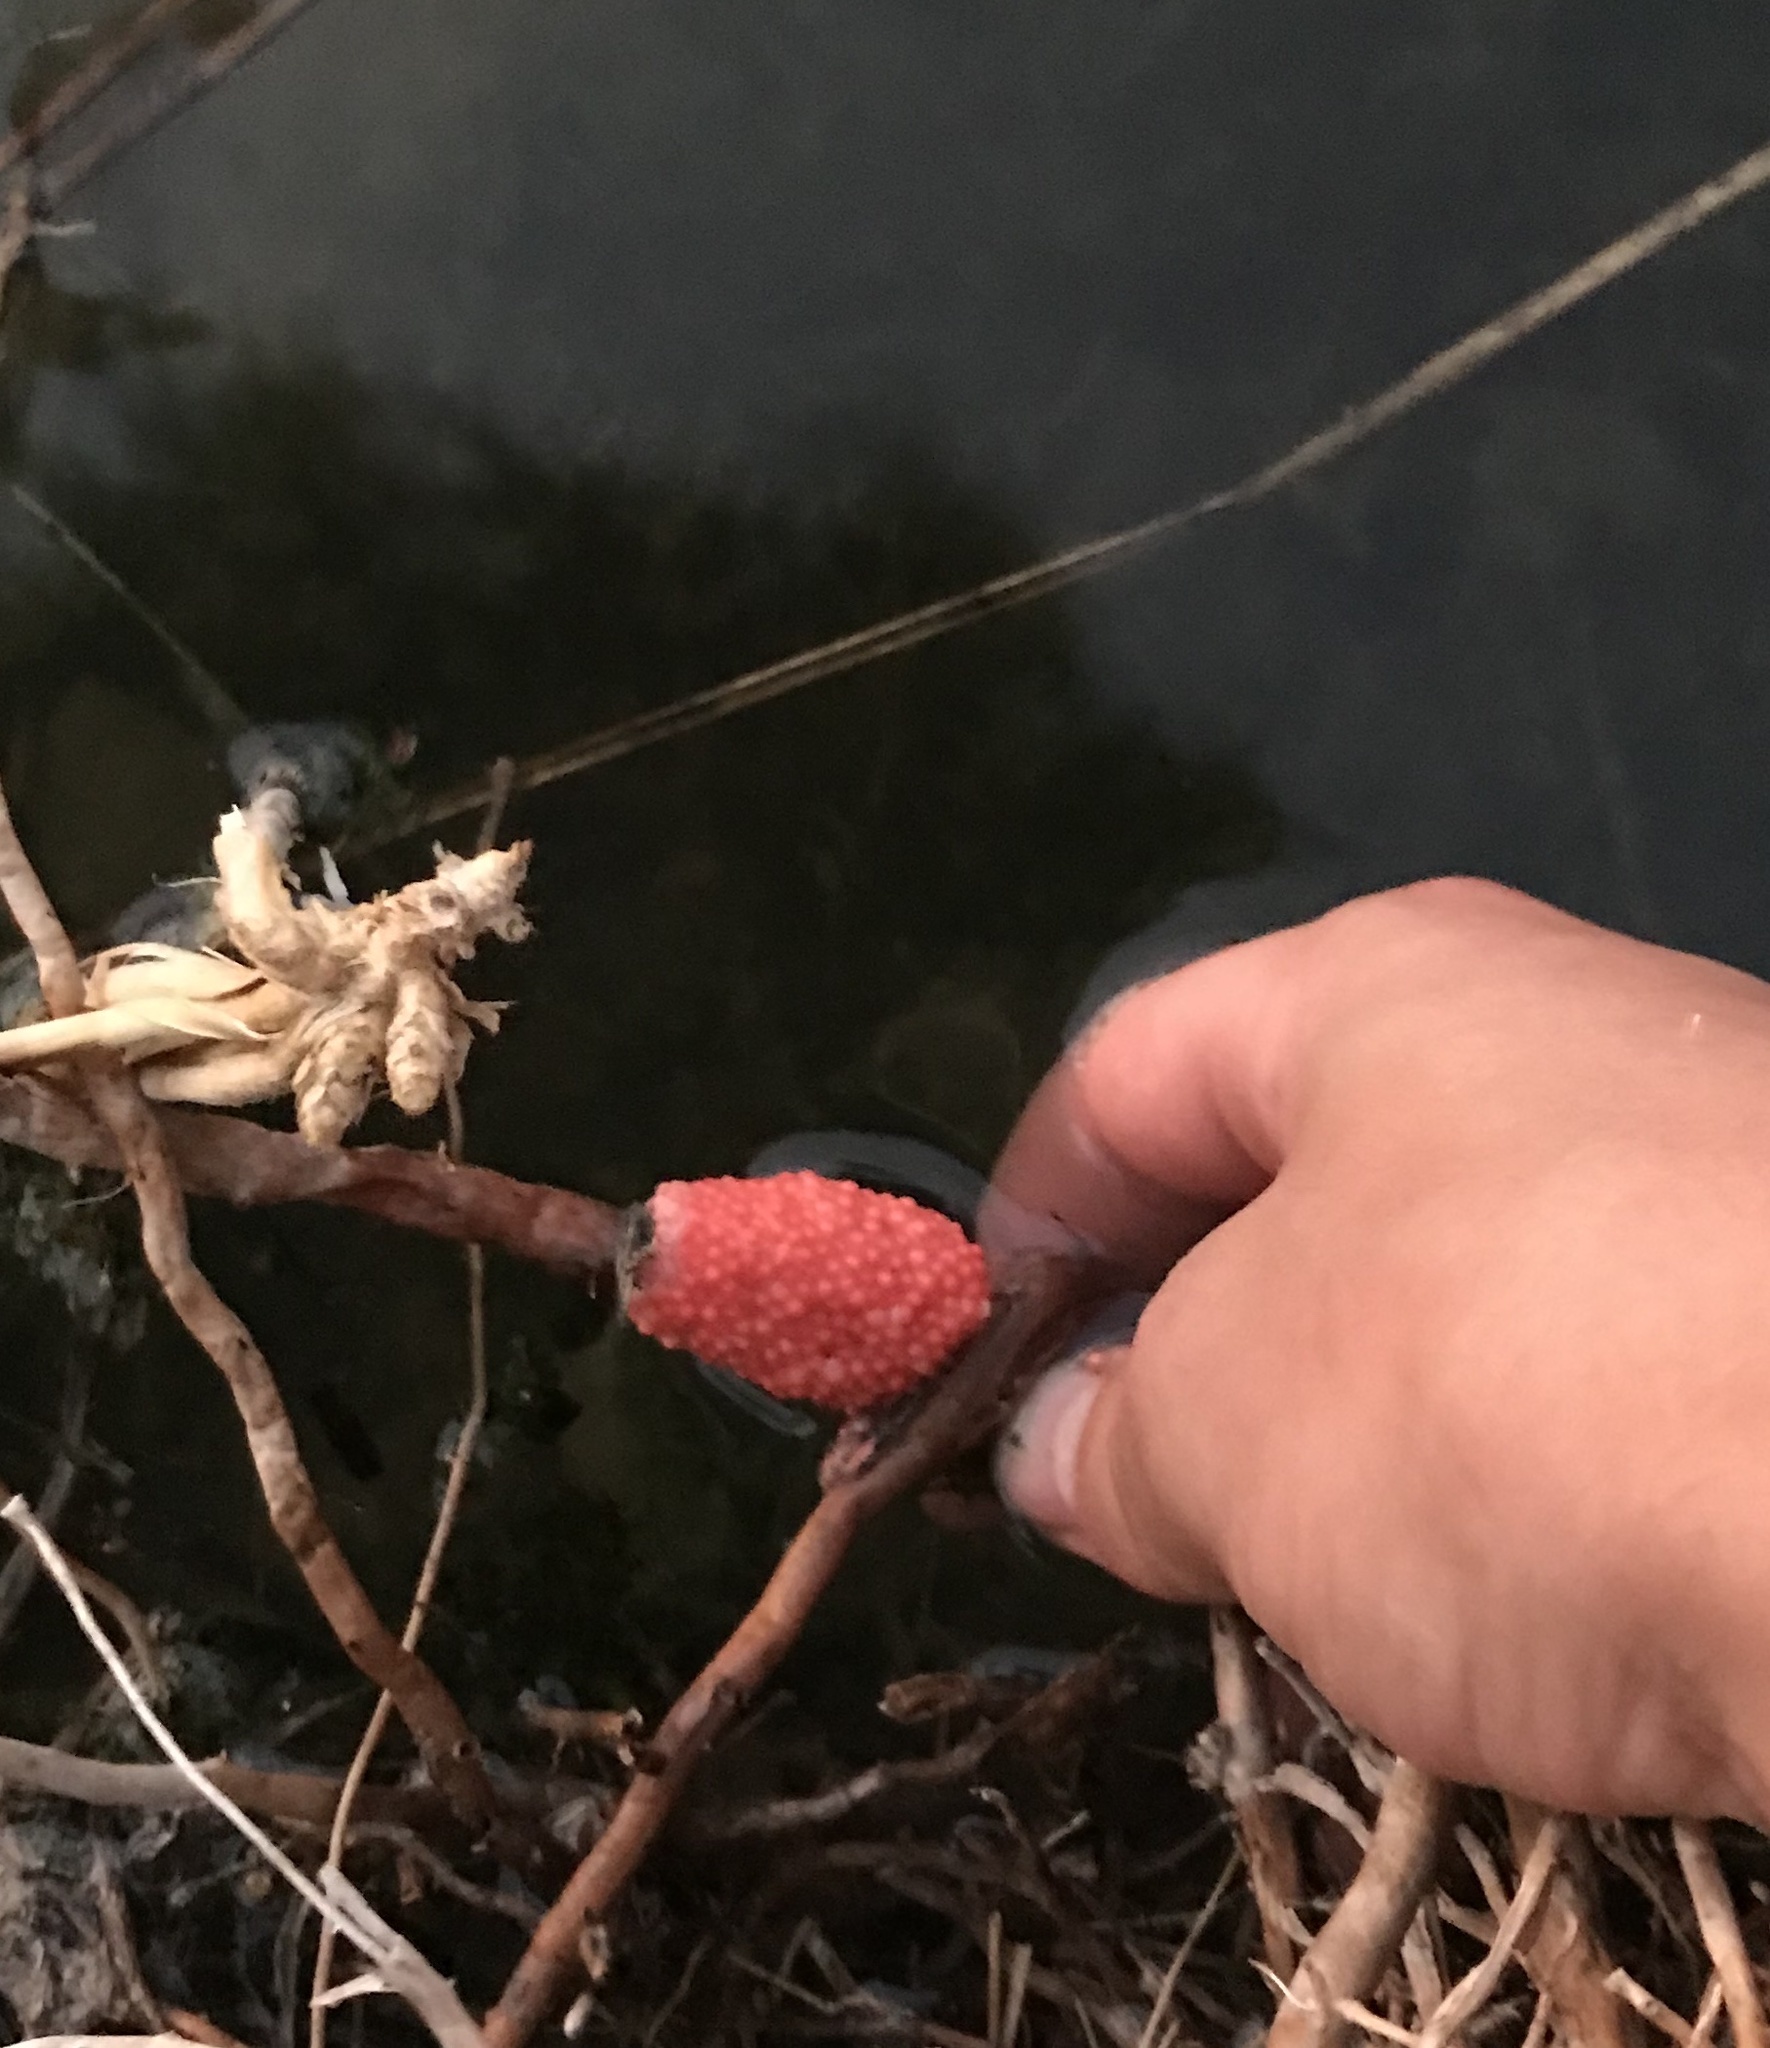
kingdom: Animalia
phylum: Mollusca
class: Gastropoda
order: Architaenioglossa
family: Ampullariidae
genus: Pomacea
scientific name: Pomacea maculata
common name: Giant applesnail
